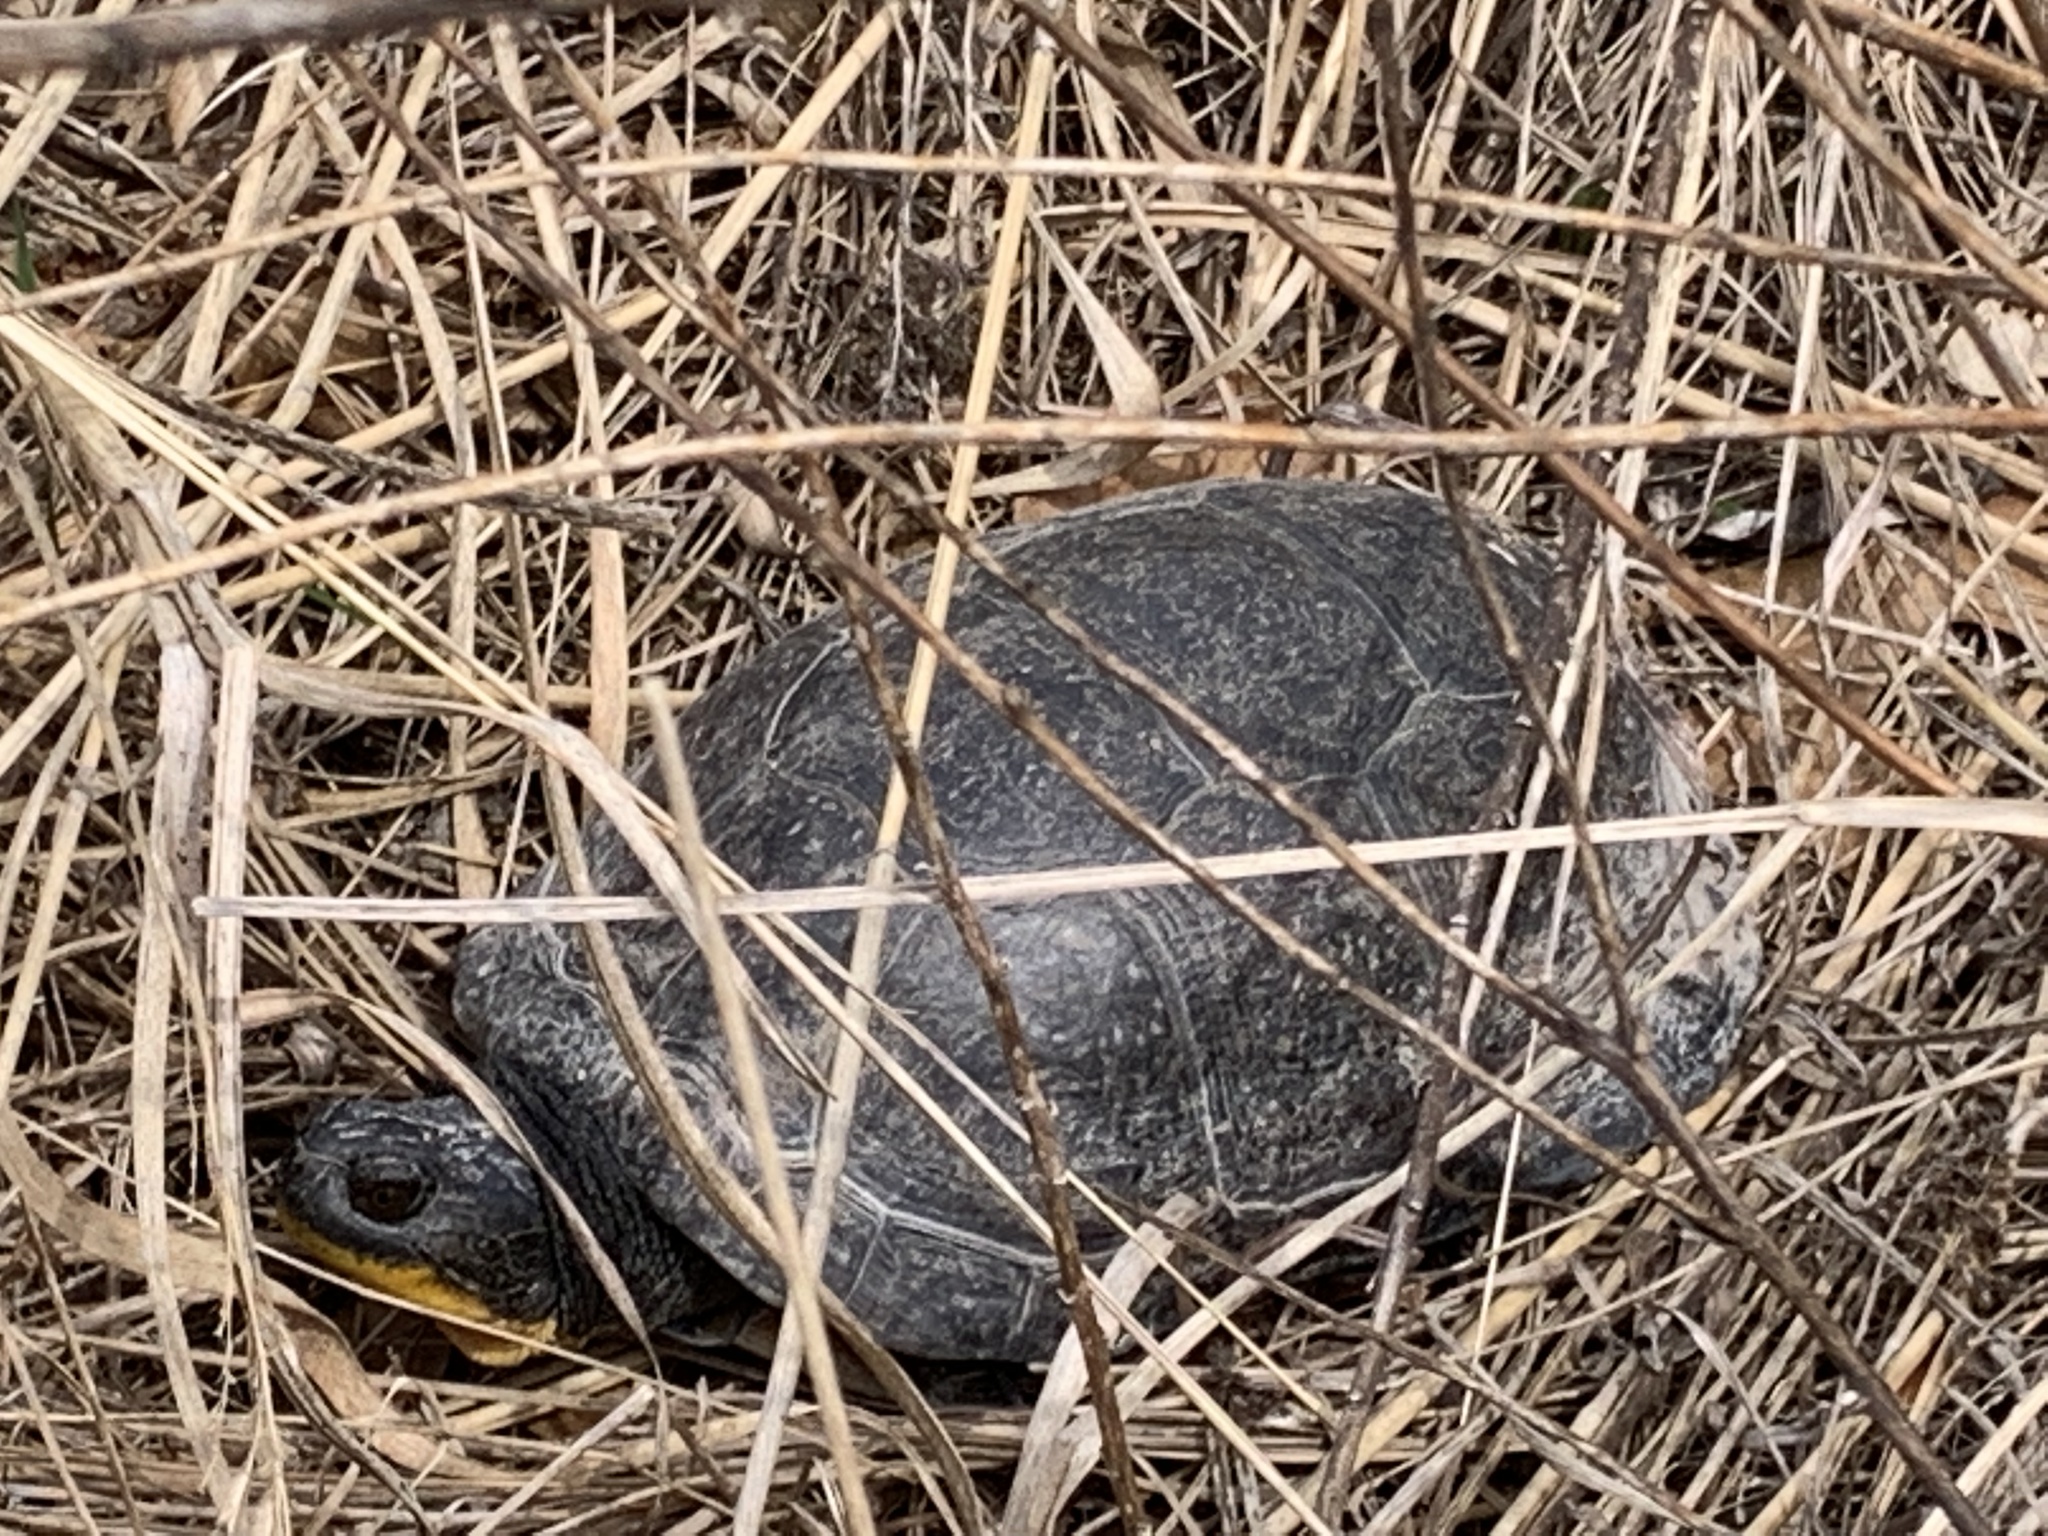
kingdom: Animalia
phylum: Chordata
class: Testudines
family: Emydidae
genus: Emys
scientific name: Emys blandingii
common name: Blanding's turtle
